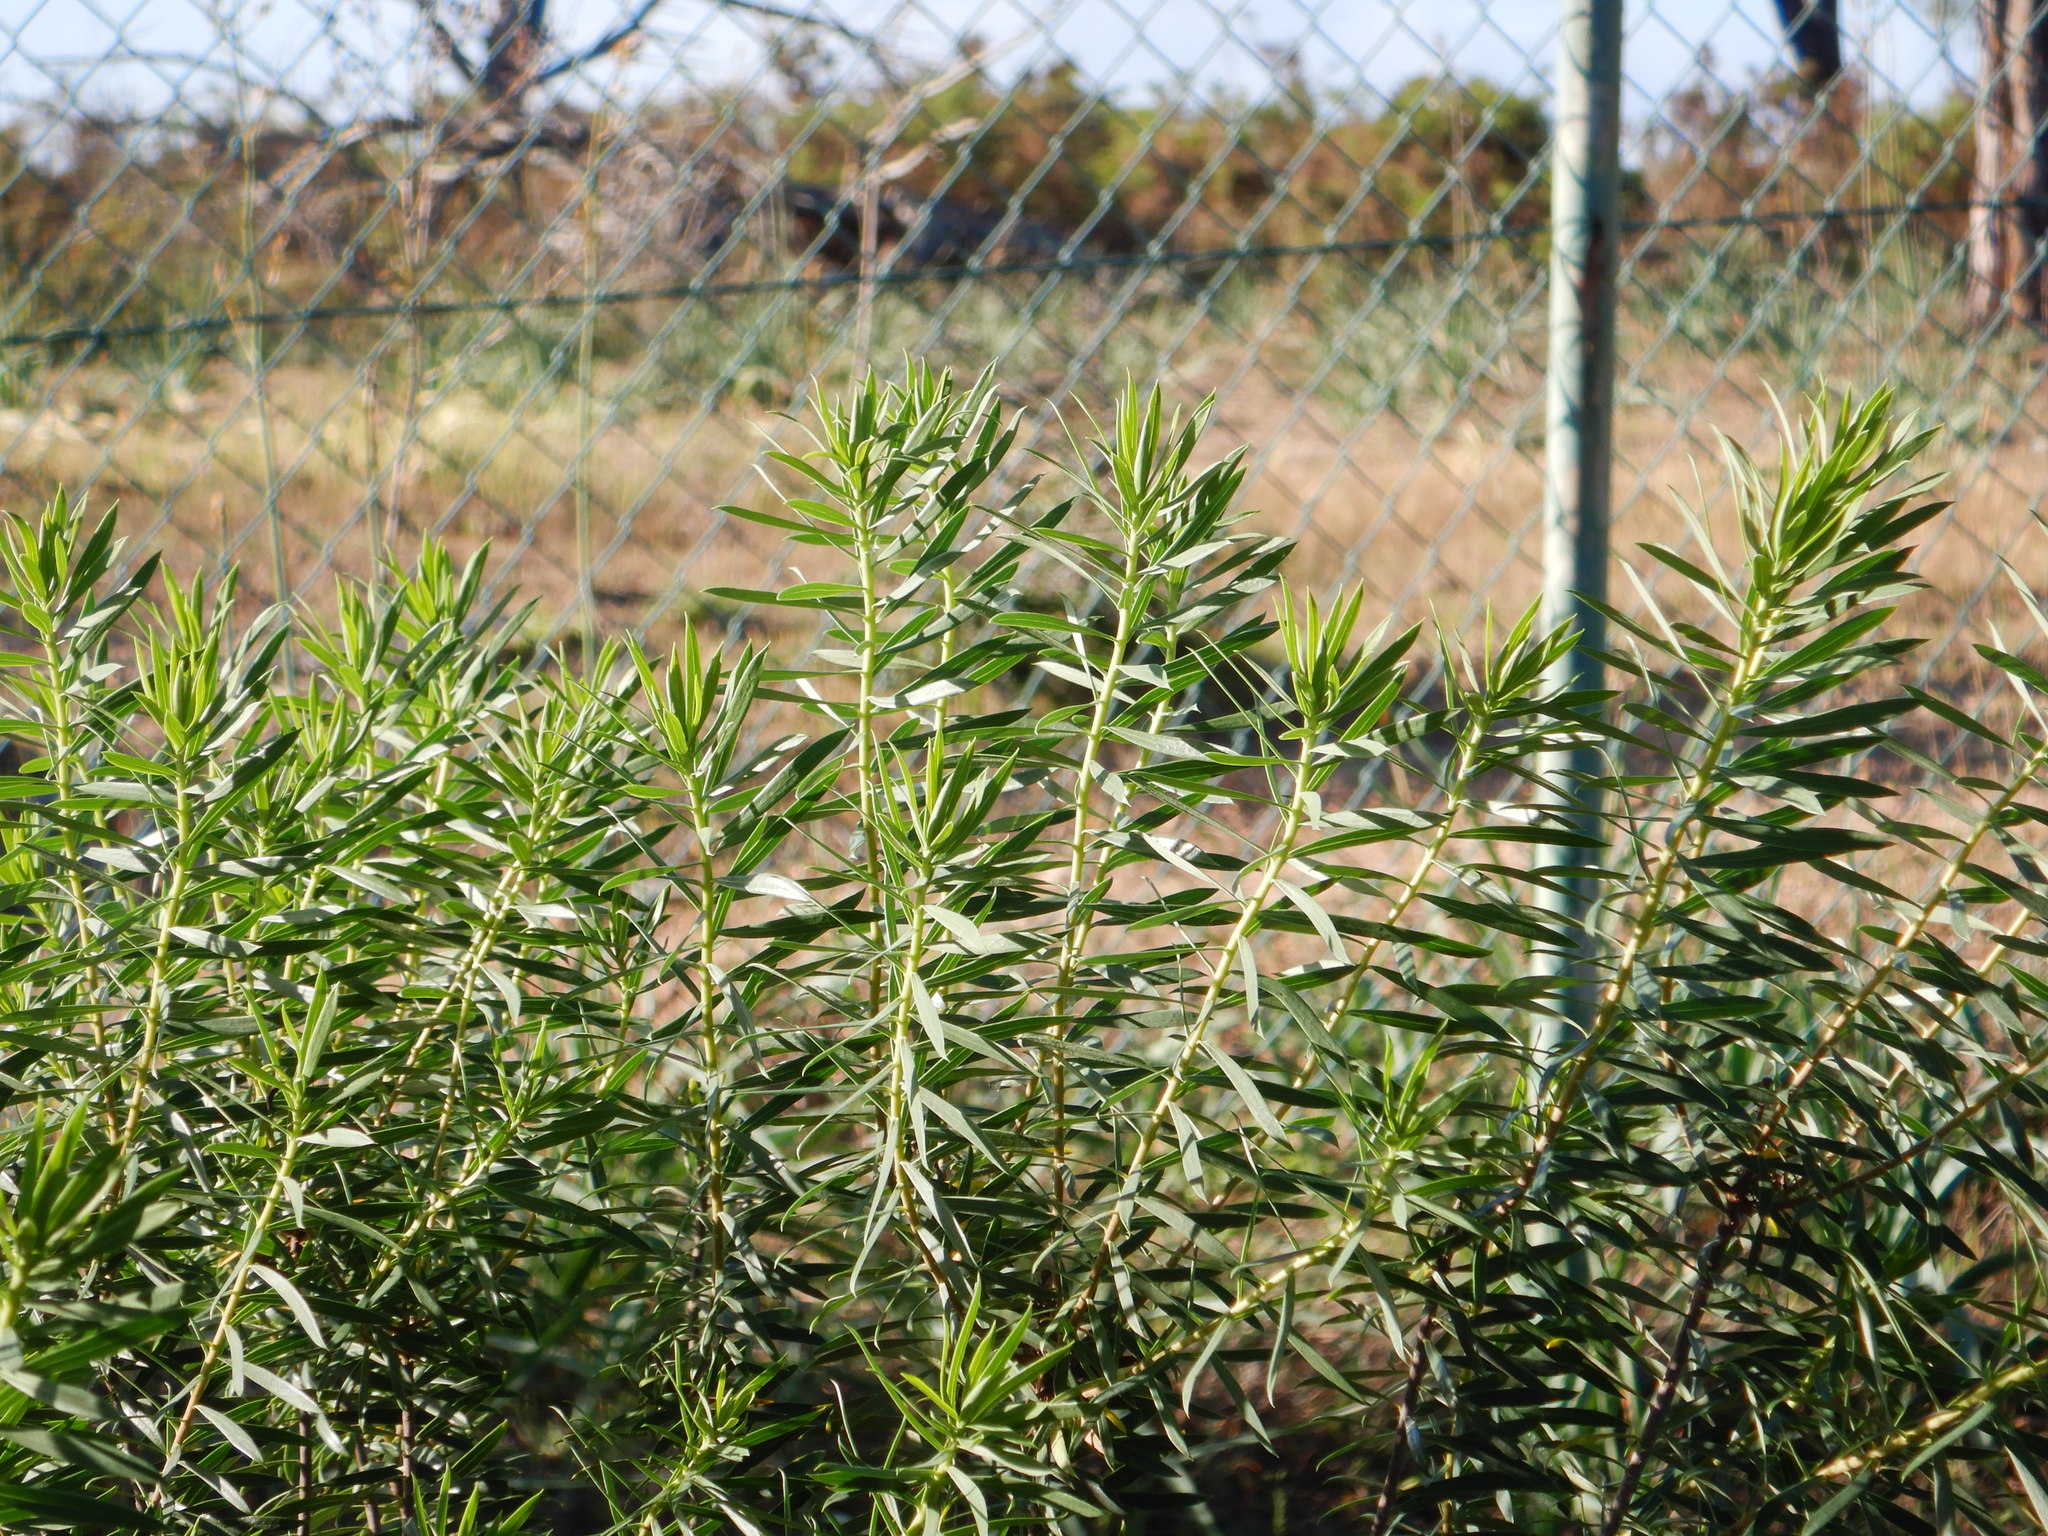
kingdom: Plantae
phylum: Tracheophyta
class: Magnoliopsida
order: Malvales
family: Thymelaeaceae
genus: Daphne
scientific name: Daphne gnidium
